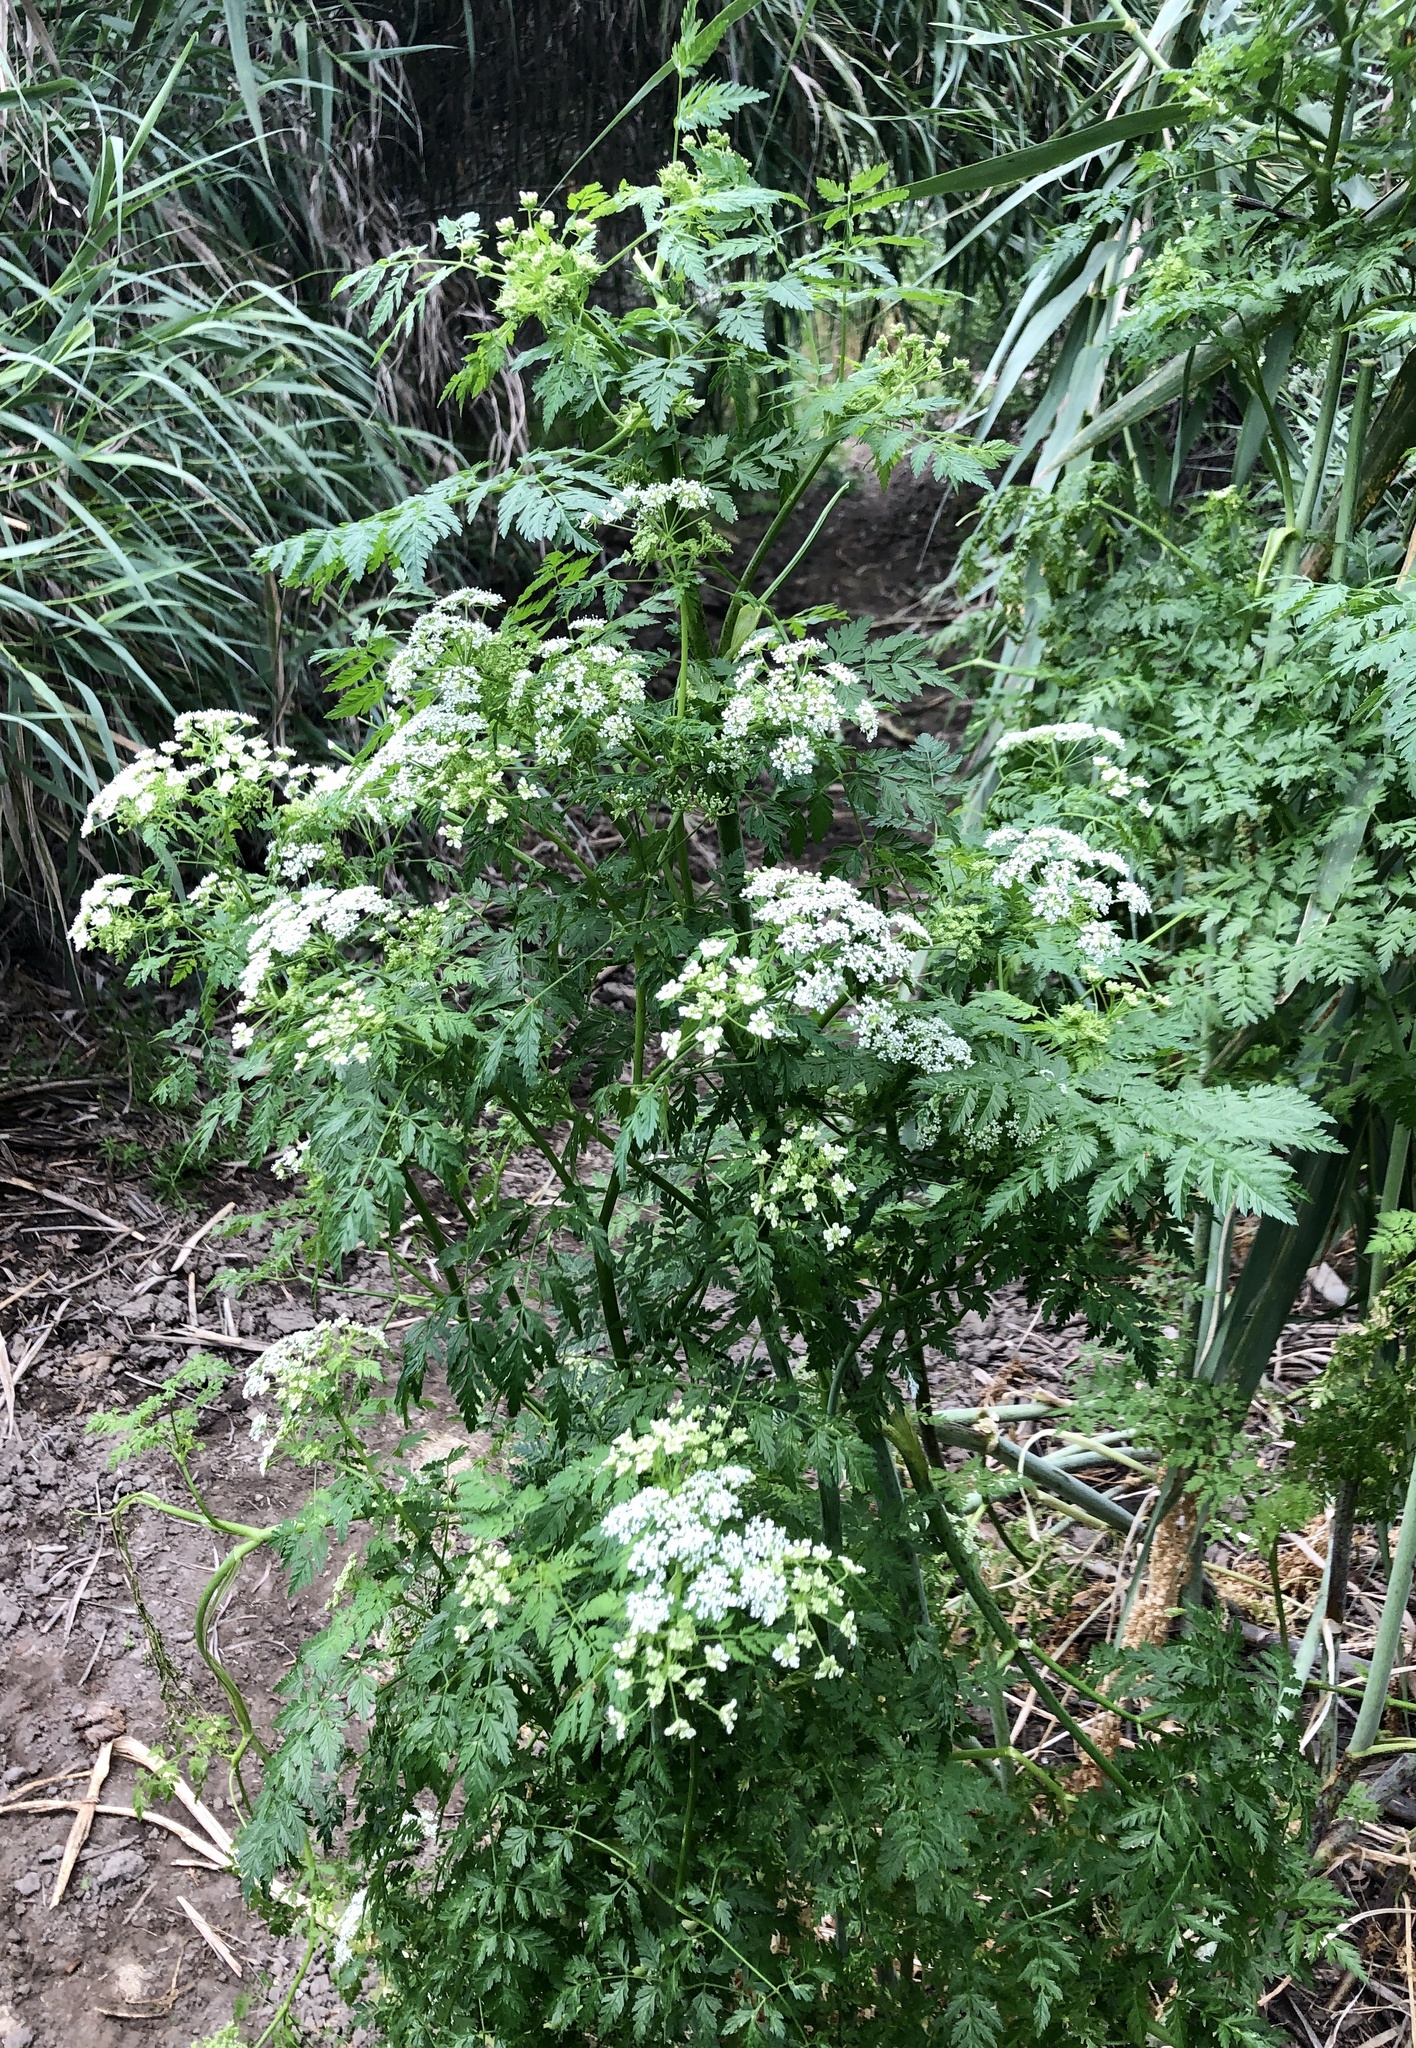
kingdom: Plantae
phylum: Tracheophyta
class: Magnoliopsida
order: Apiales
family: Apiaceae
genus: Conium
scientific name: Conium maculatum
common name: Hemlock
